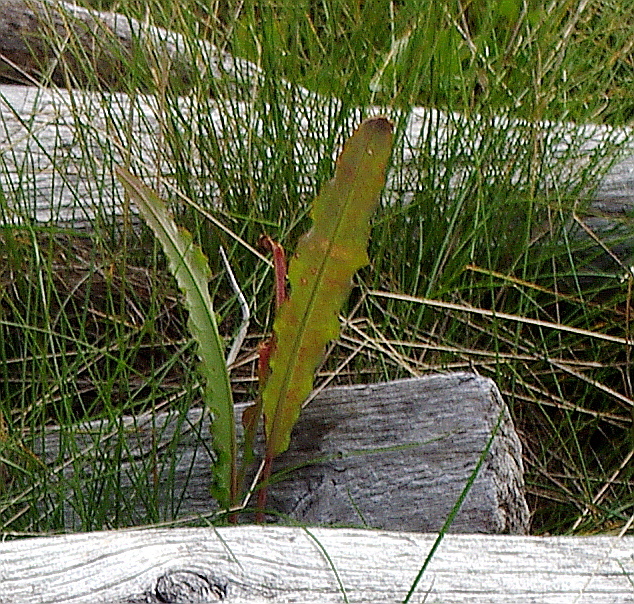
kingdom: Plantae
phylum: Tracheophyta
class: Magnoliopsida
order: Caryophyllales
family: Polygonaceae
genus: Rumex
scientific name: Rumex pseudonatronatus
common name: Field dock
